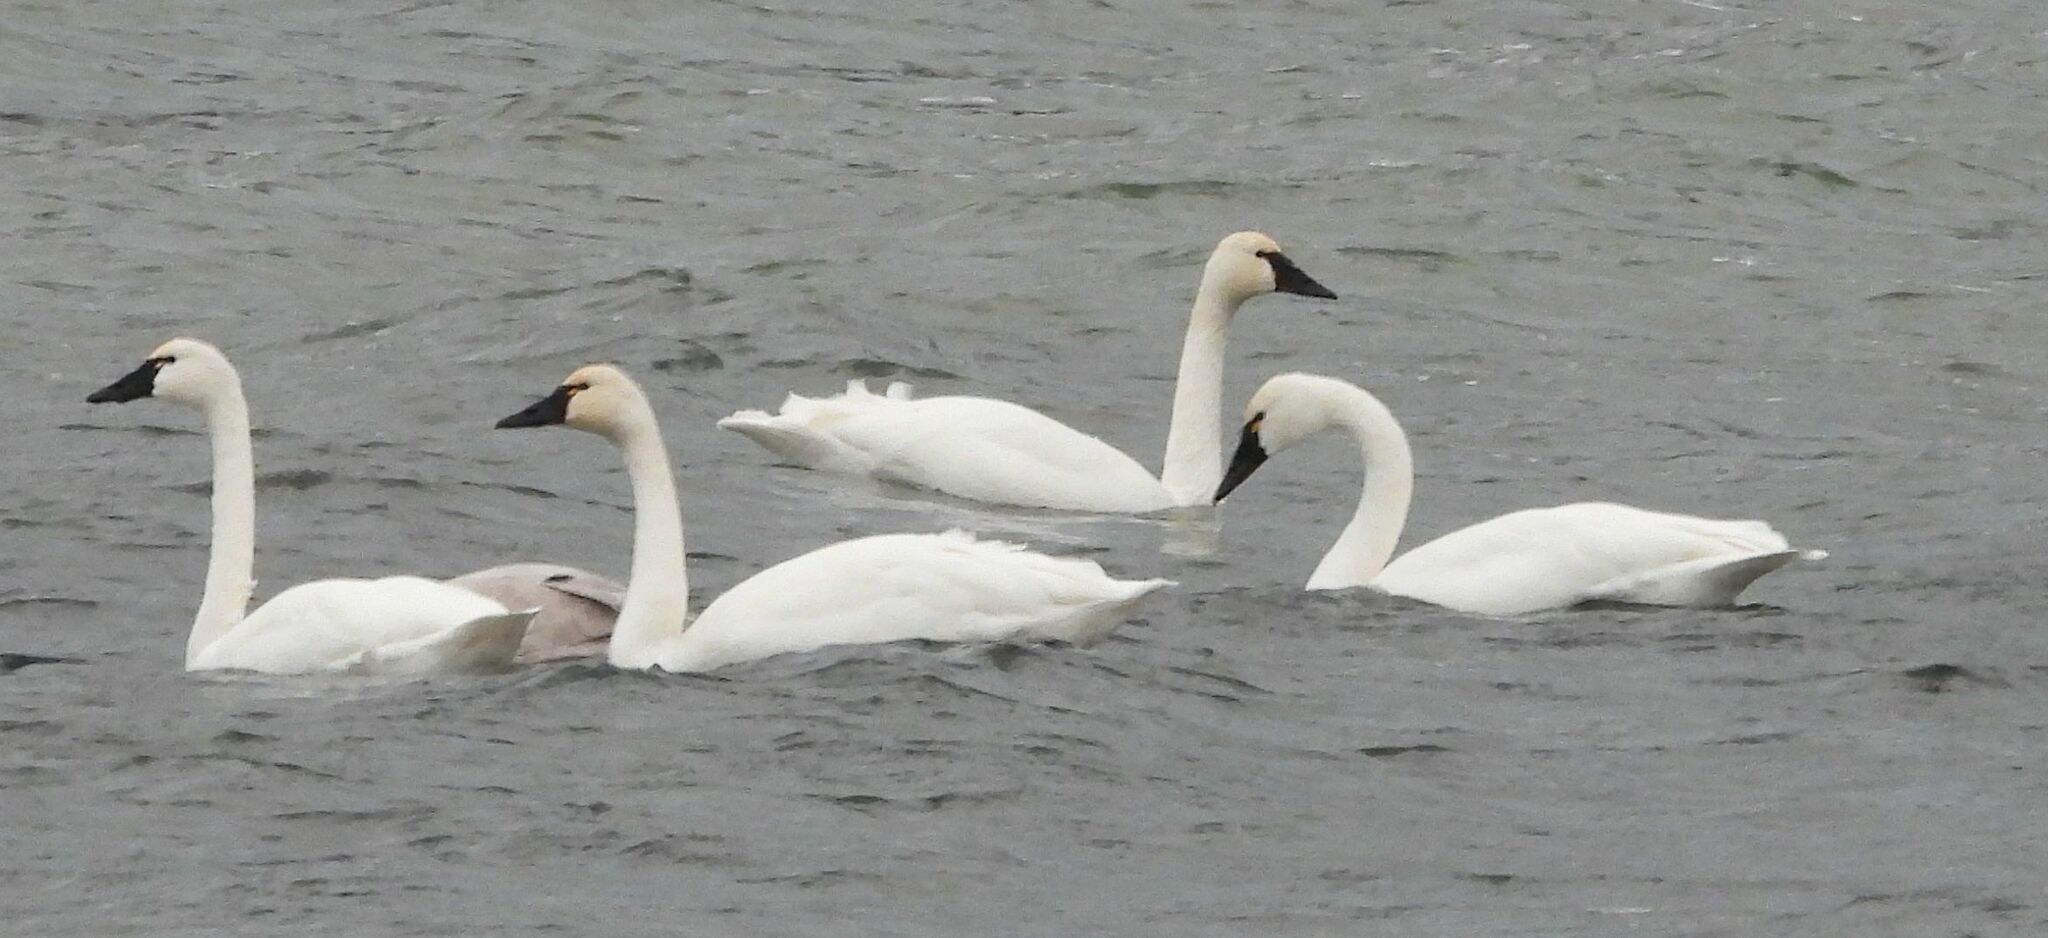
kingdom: Animalia
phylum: Chordata
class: Aves
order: Anseriformes
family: Anatidae
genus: Cygnus
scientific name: Cygnus columbianus
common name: Tundra swan
